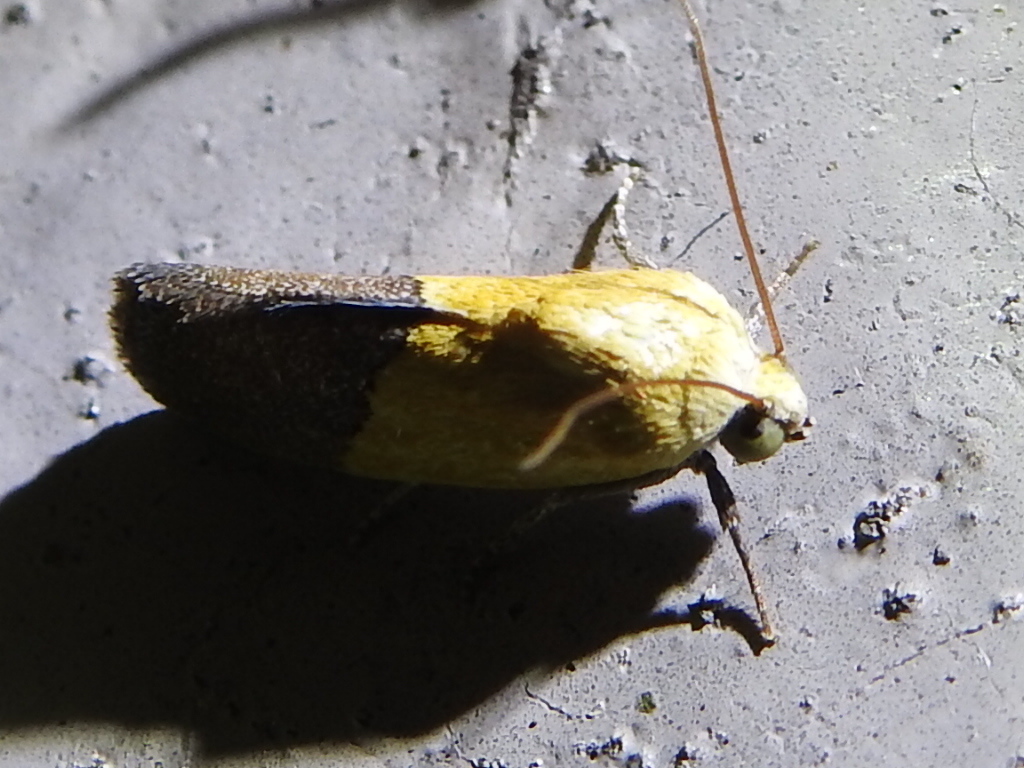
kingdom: Animalia
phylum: Arthropoda
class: Insecta
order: Lepidoptera
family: Noctuidae
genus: Acontia
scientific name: Acontia semiflava
